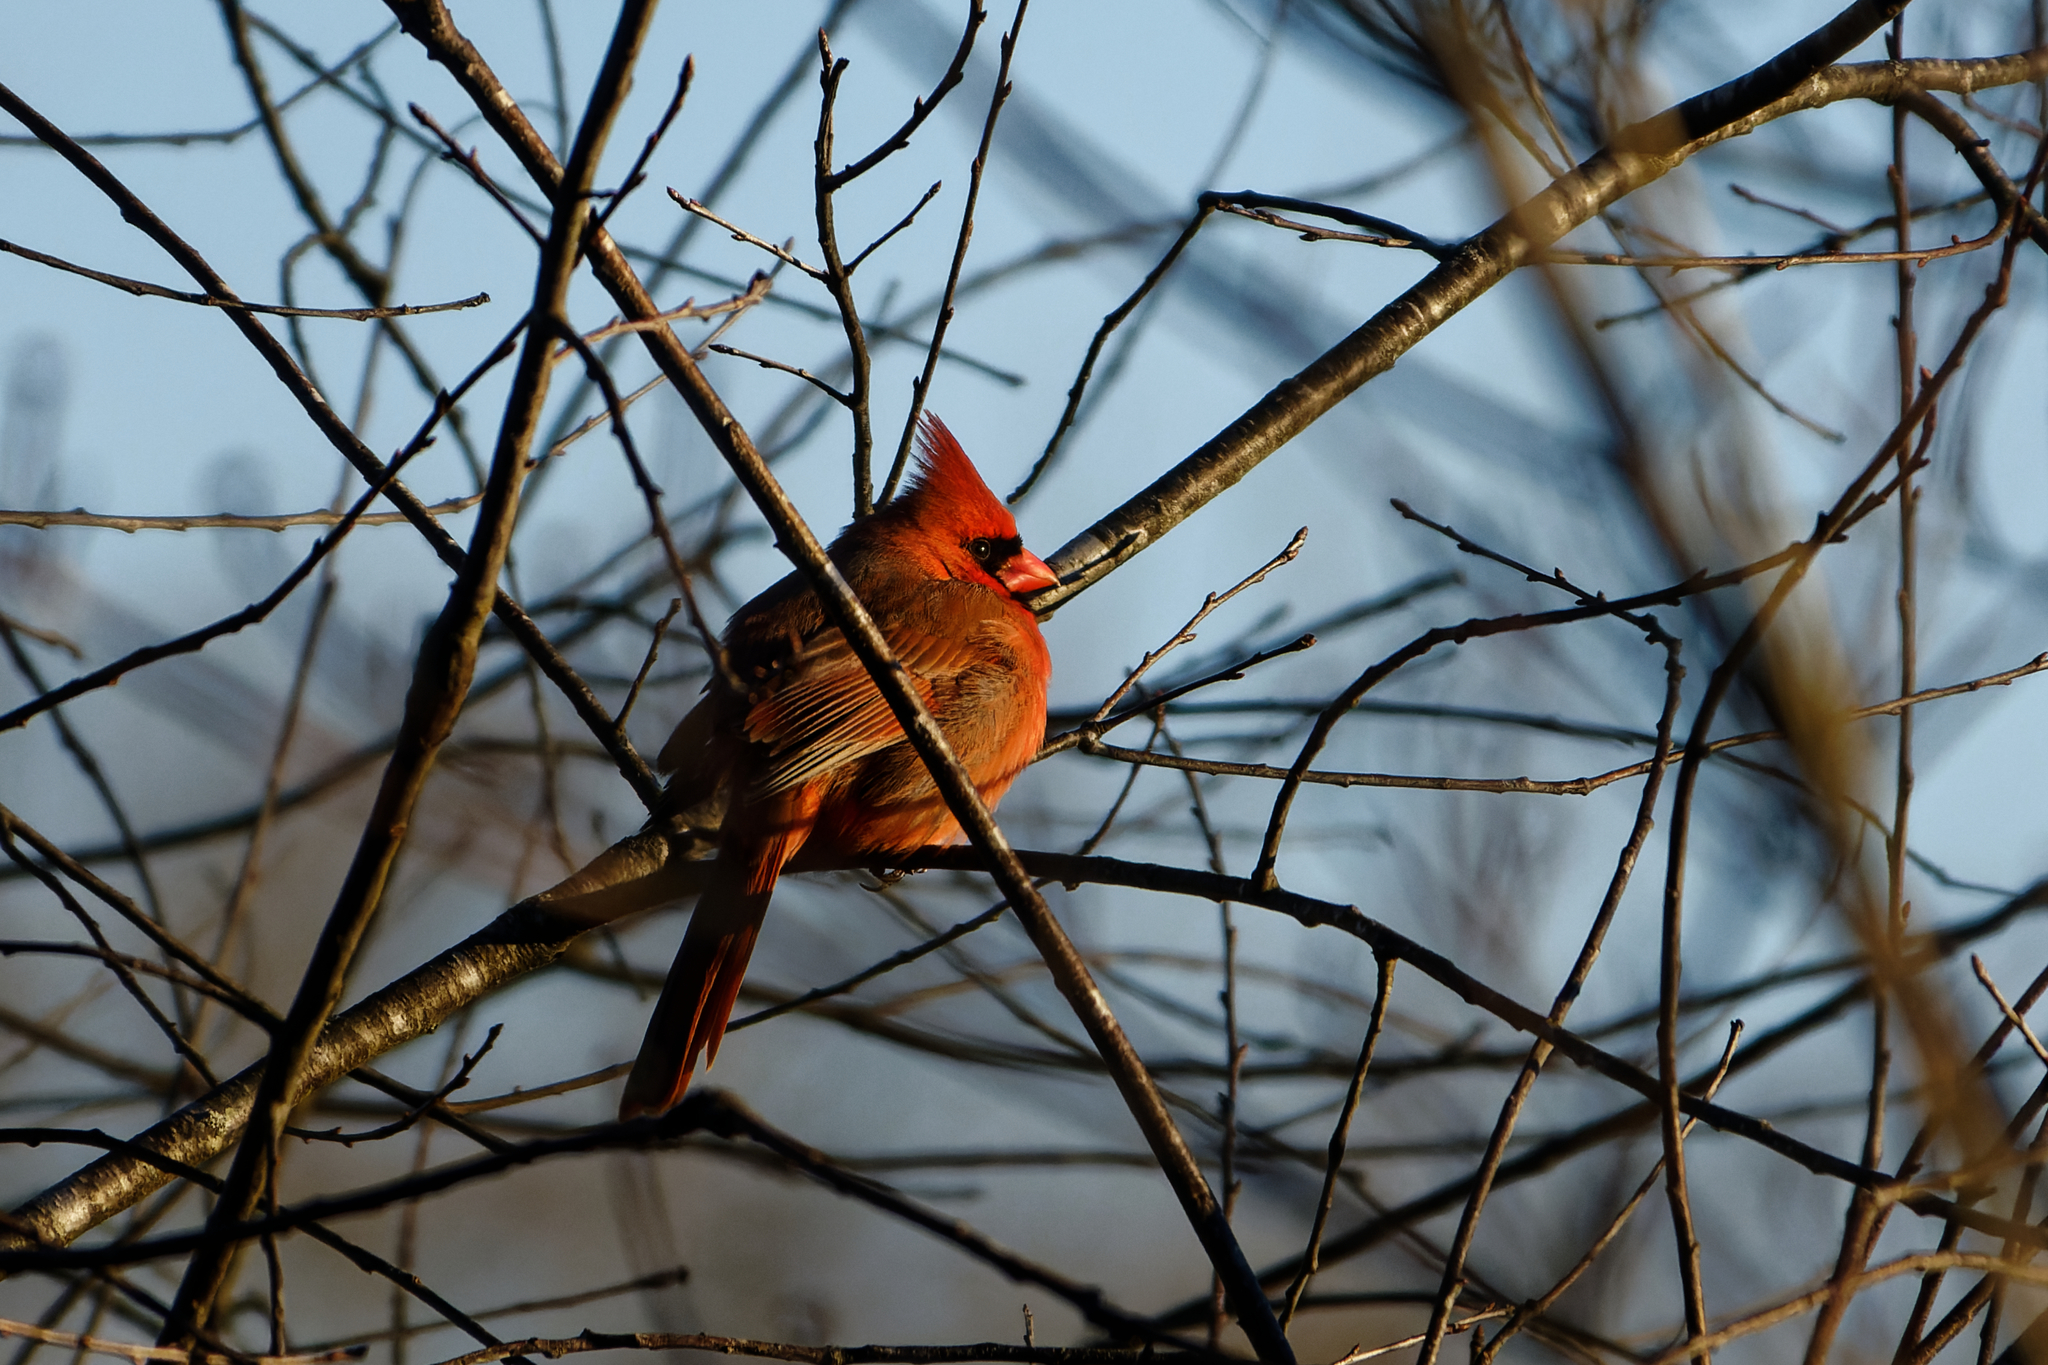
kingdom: Animalia
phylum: Chordata
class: Aves
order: Passeriformes
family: Cardinalidae
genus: Cardinalis
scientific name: Cardinalis cardinalis
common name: Northern cardinal
